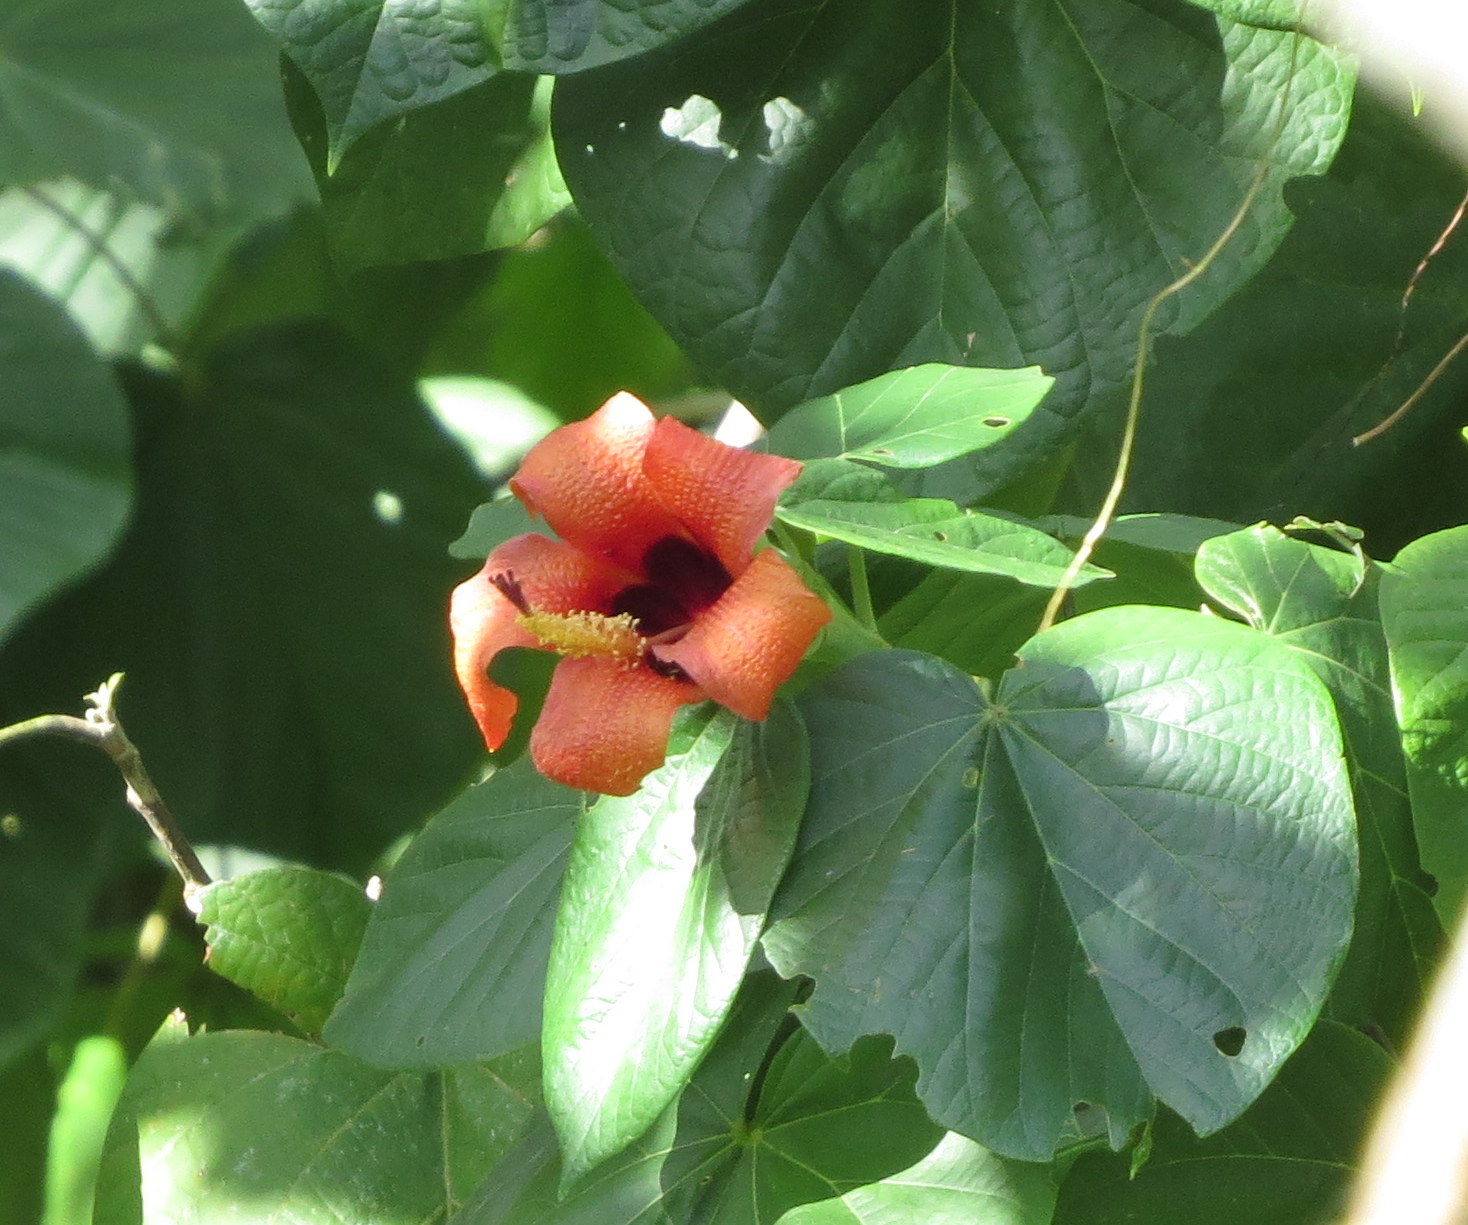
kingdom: Plantae
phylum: Tracheophyta
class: Magnoliopsida
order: Malvales
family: Malvaceae
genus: Talipariti
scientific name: Talipariti
